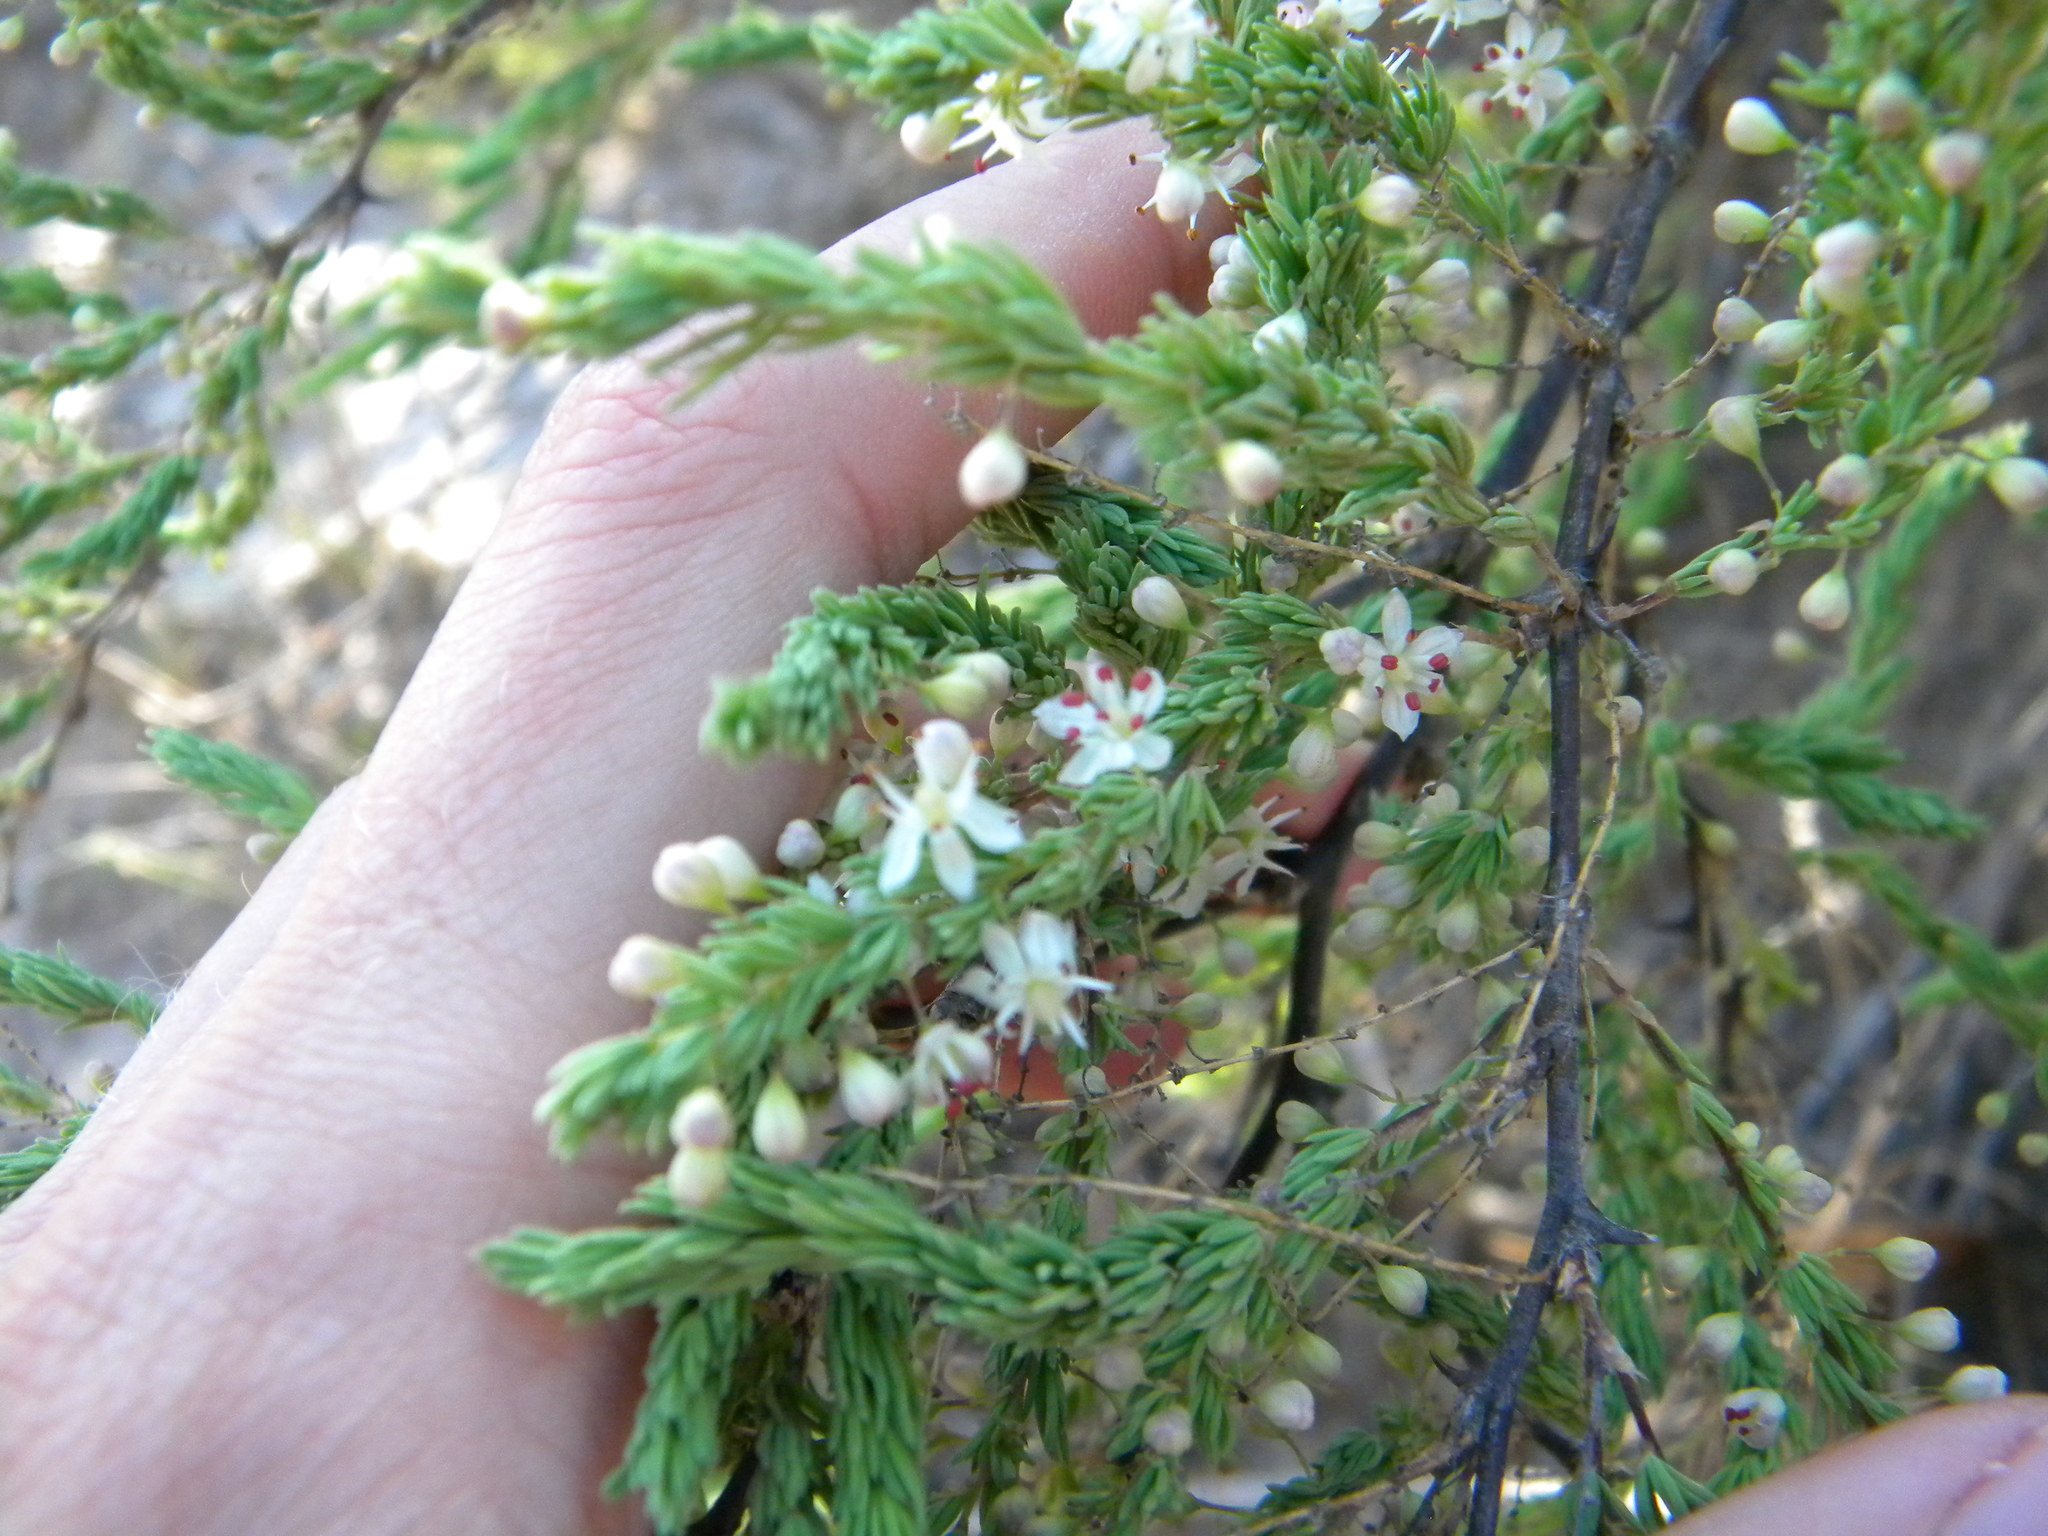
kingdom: Plantae
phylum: Tracheophyta
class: Liliopsida
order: Asparagales
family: Asparagaceae
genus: Asparagus
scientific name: Asparagus rubicundus
